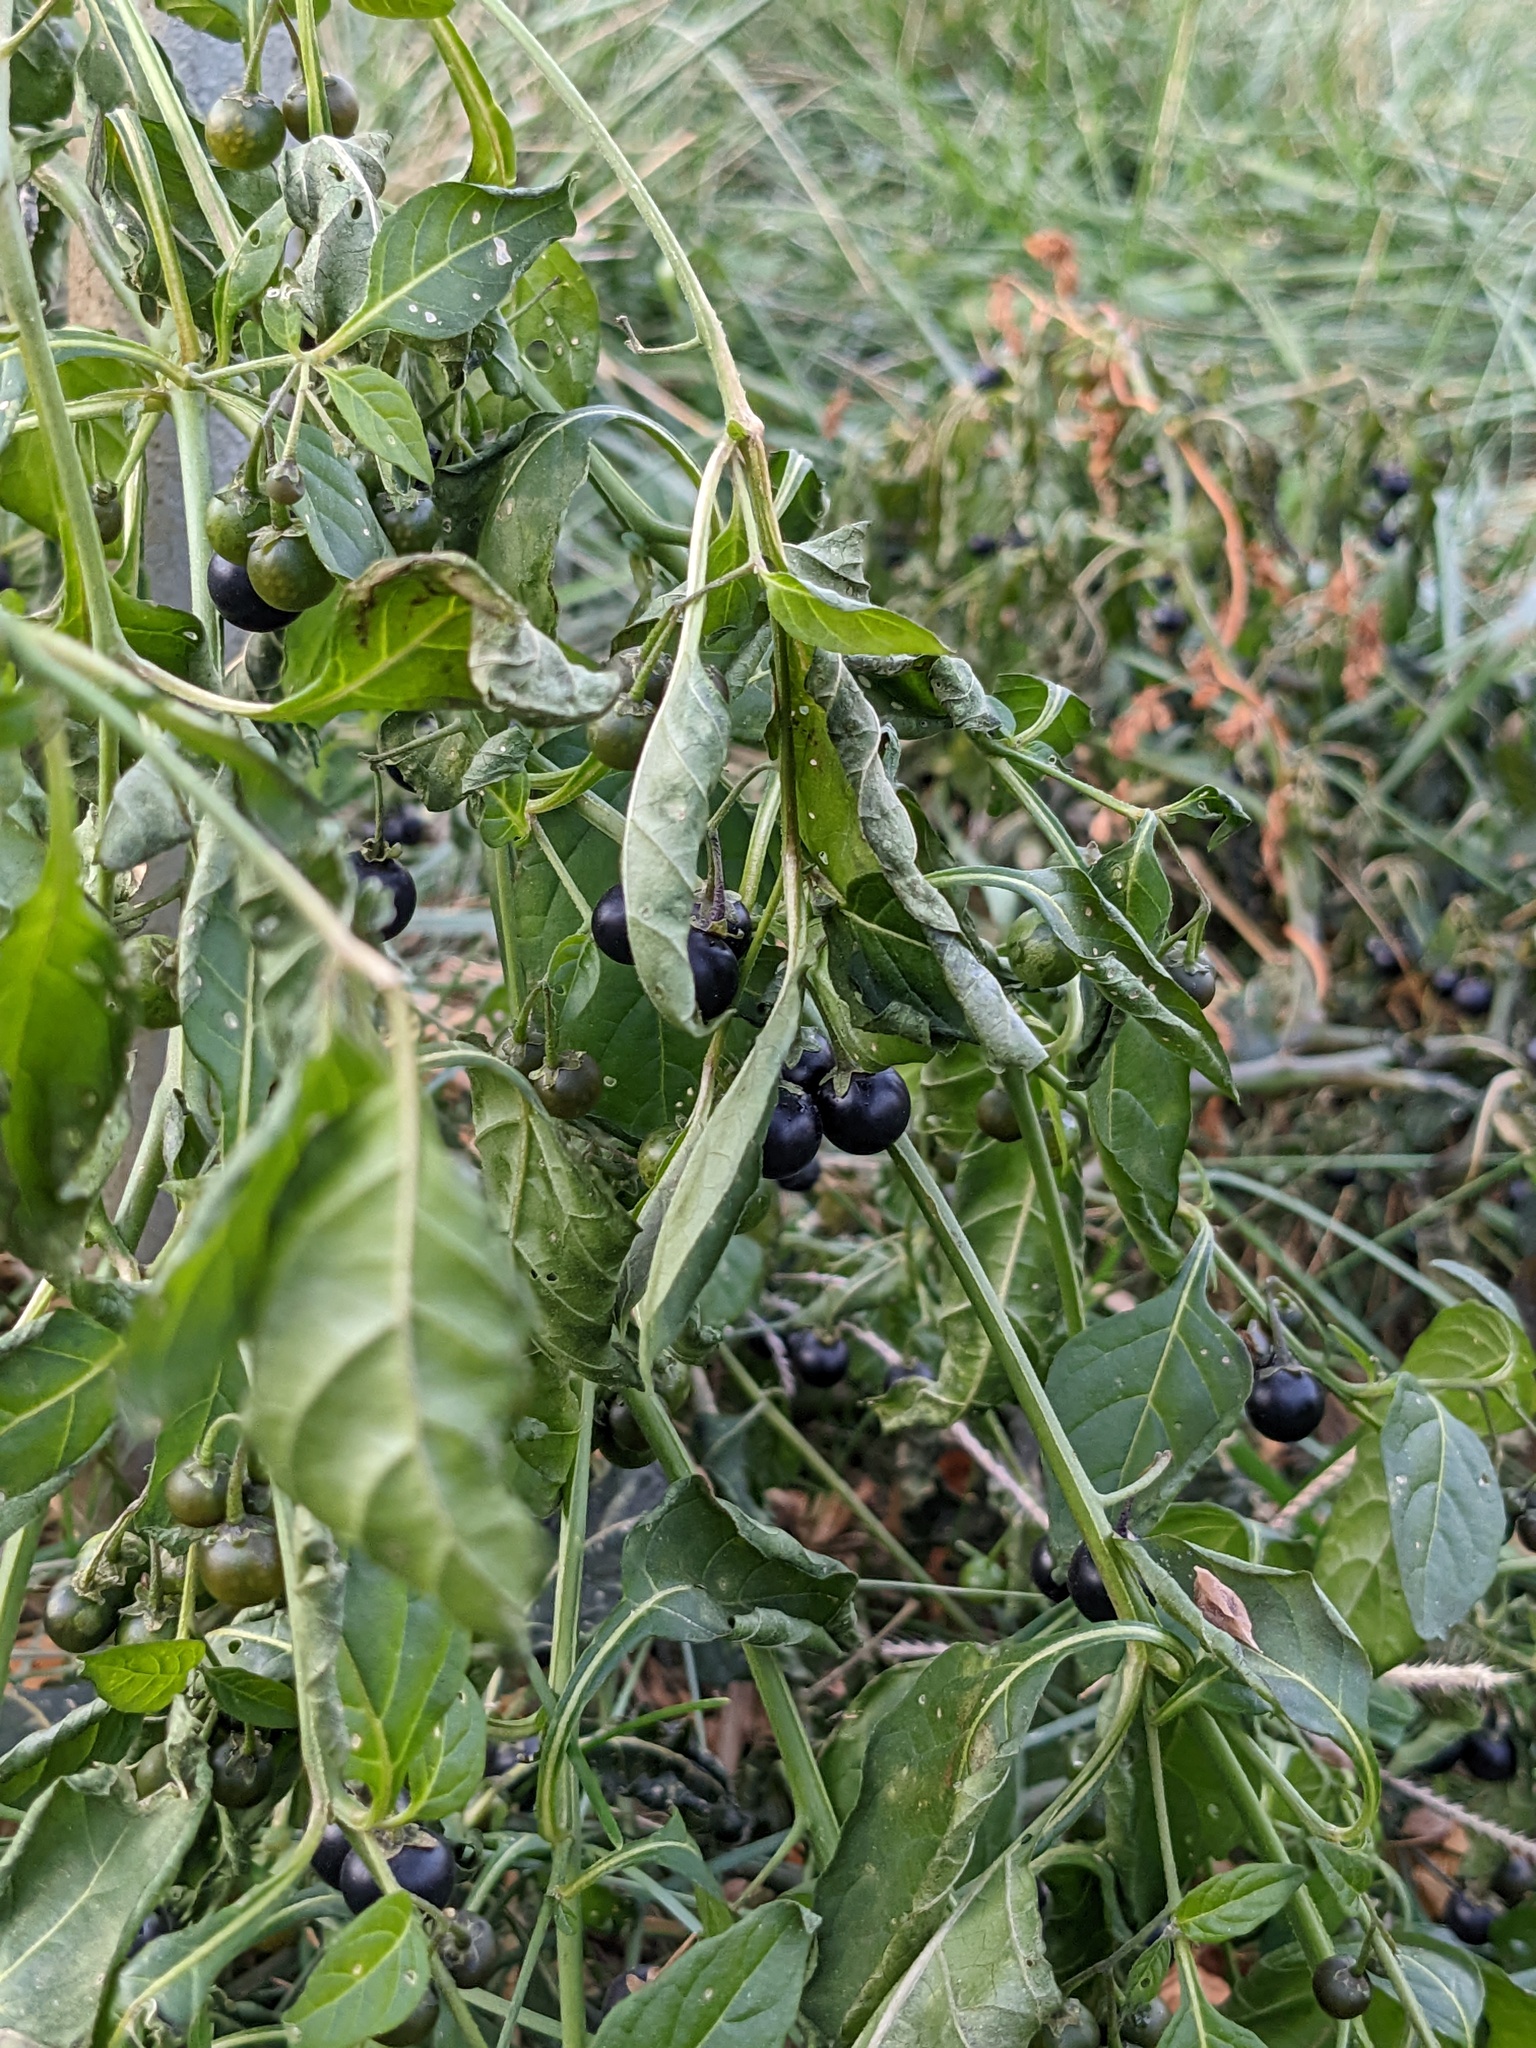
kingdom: Plantae
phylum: Tracheophyta
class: Magnoliopsida
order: Solanales
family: Solanaceae
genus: Solanum
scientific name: Solanum emulans
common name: Eastern black nightshade
